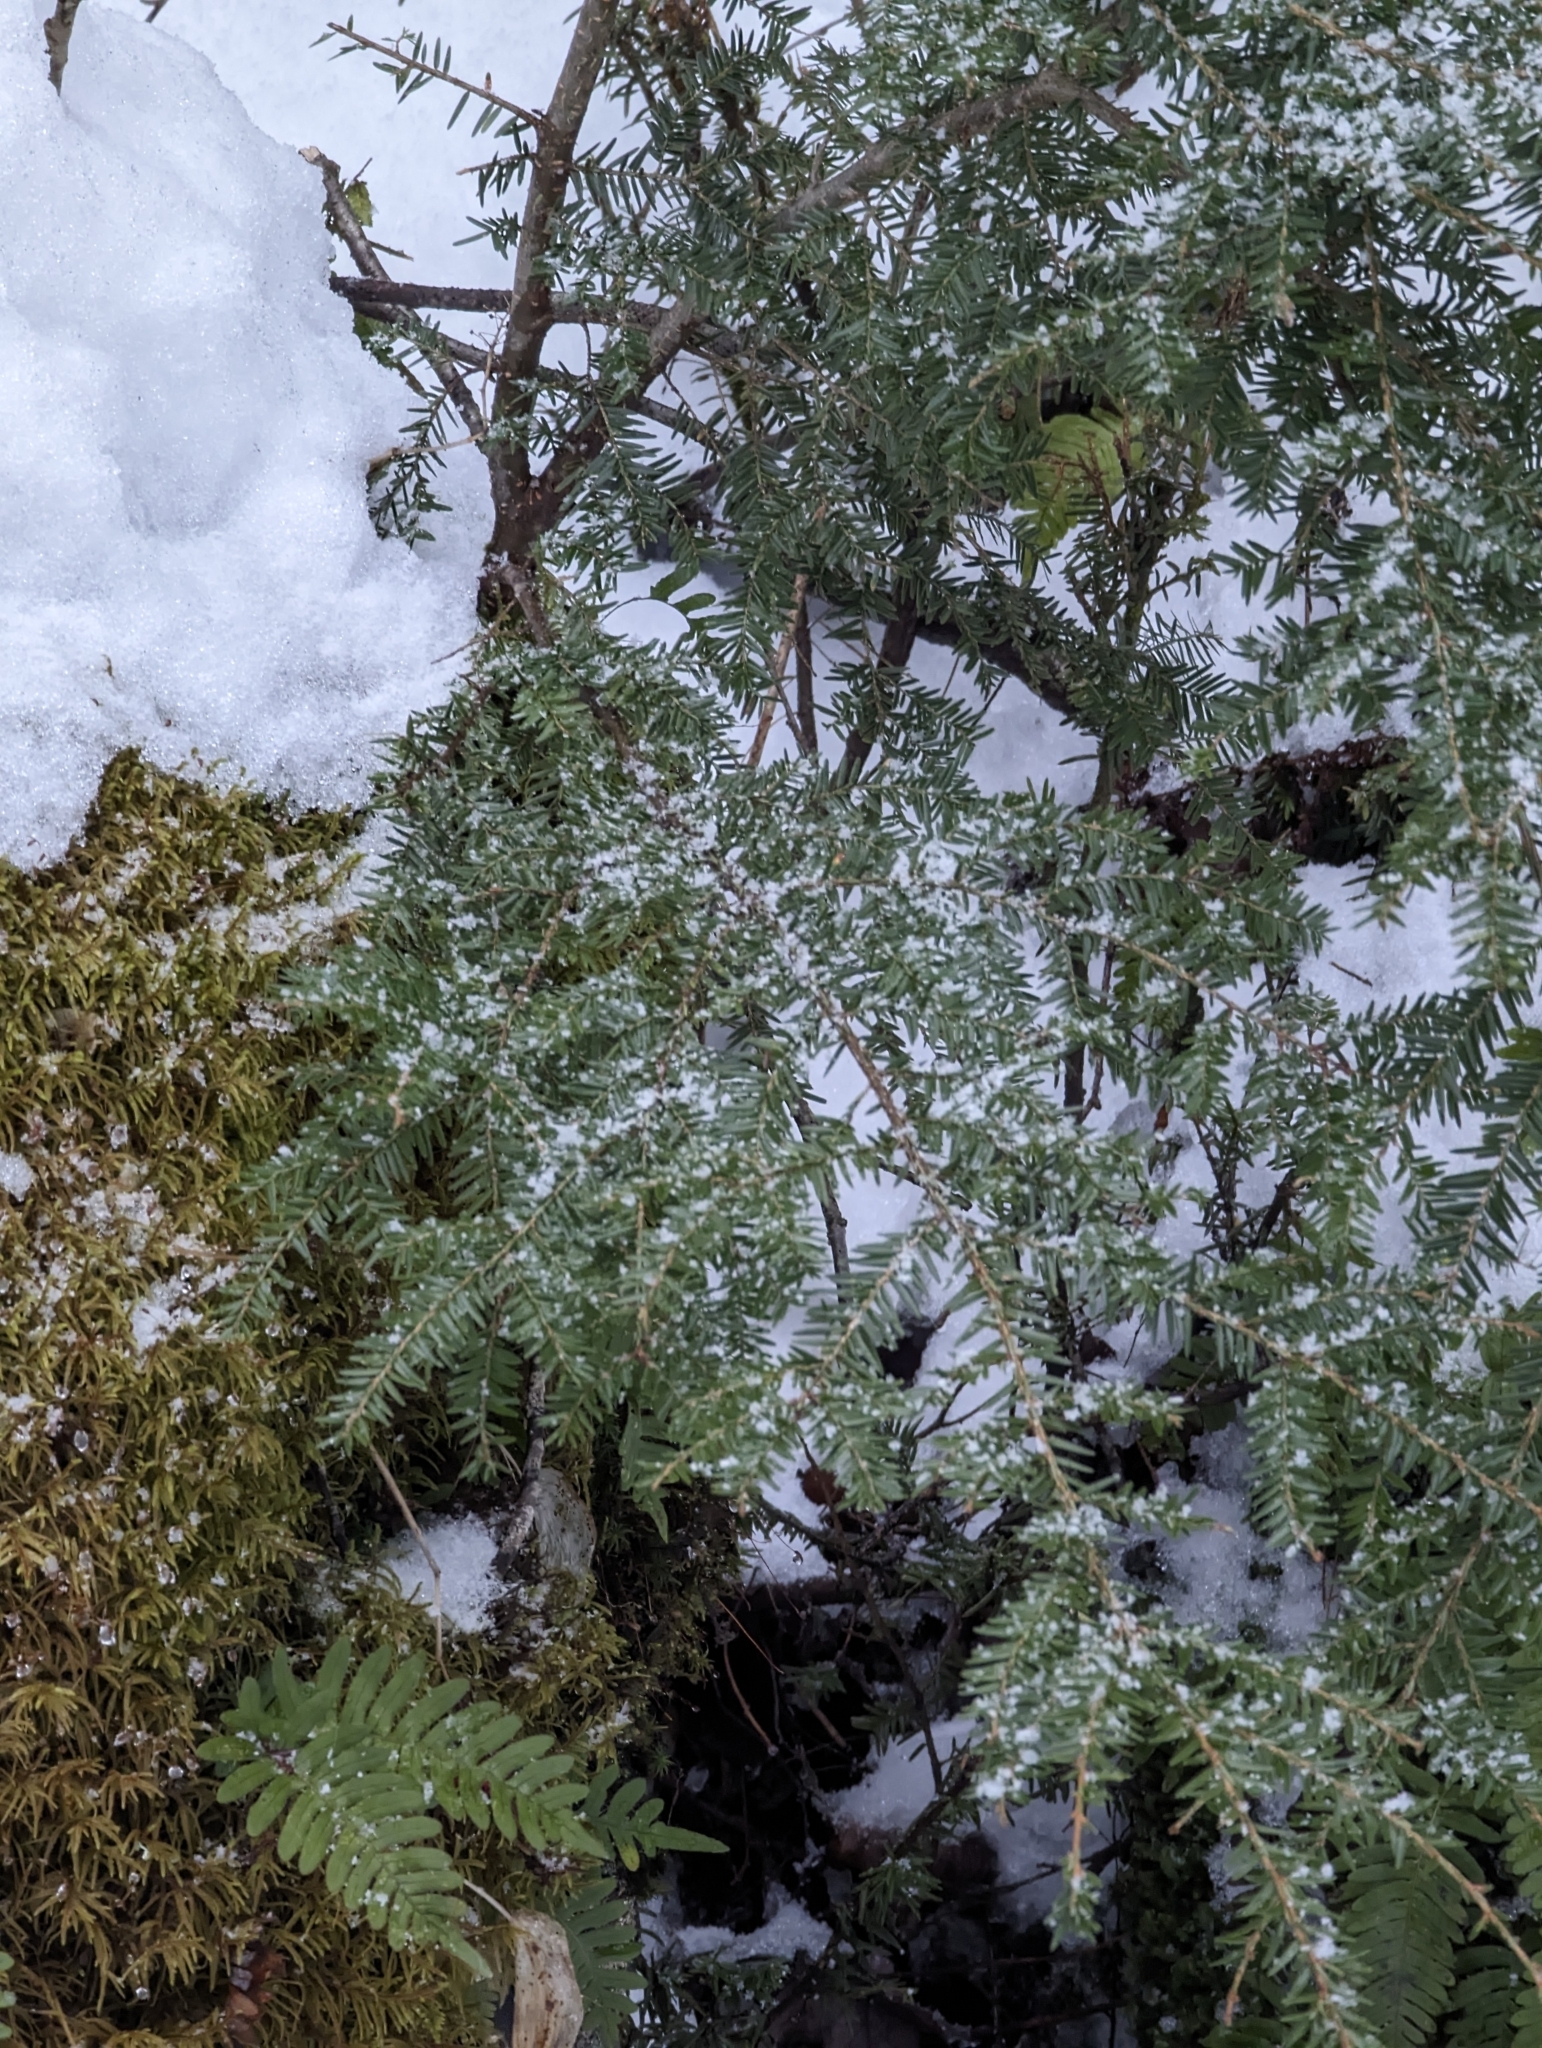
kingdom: Plantae
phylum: Tracheophyta
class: Pinopsida
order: Pinales
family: Pinaceae
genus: Tsuga
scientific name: Tsuga canadensis
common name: Eastern hemlock
